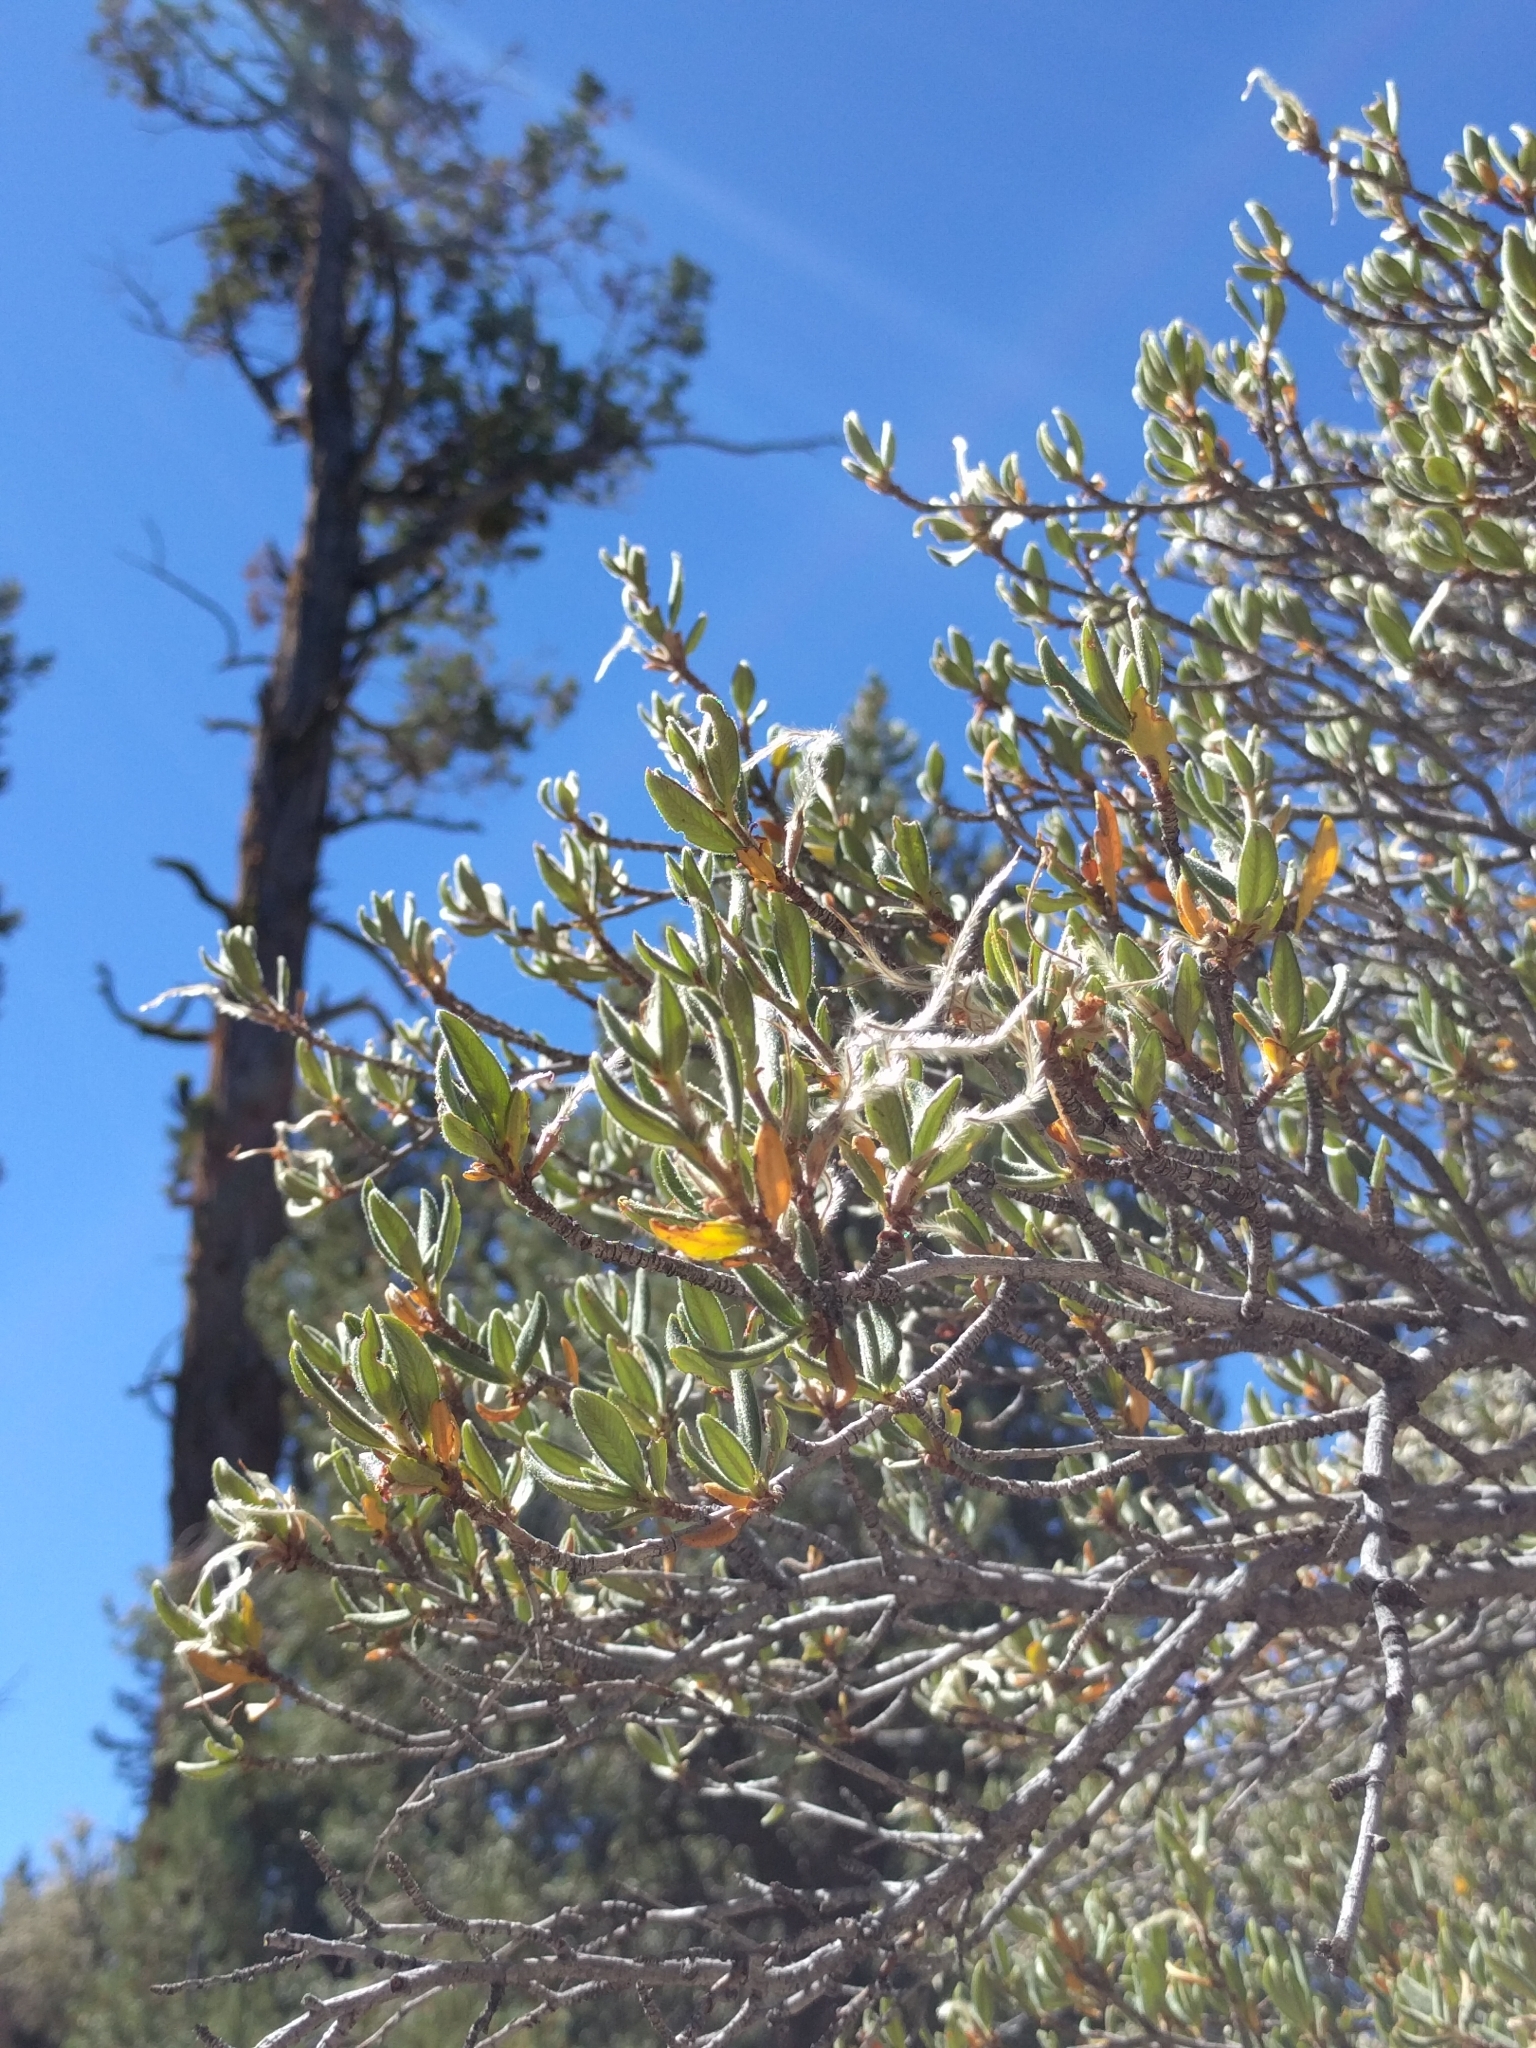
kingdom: Plantae
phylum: Tracheophyta
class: Magnoliopsida
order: Rosales
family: Rosaceae
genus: Cercocarpus
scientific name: Cercocarpus ledifolius
